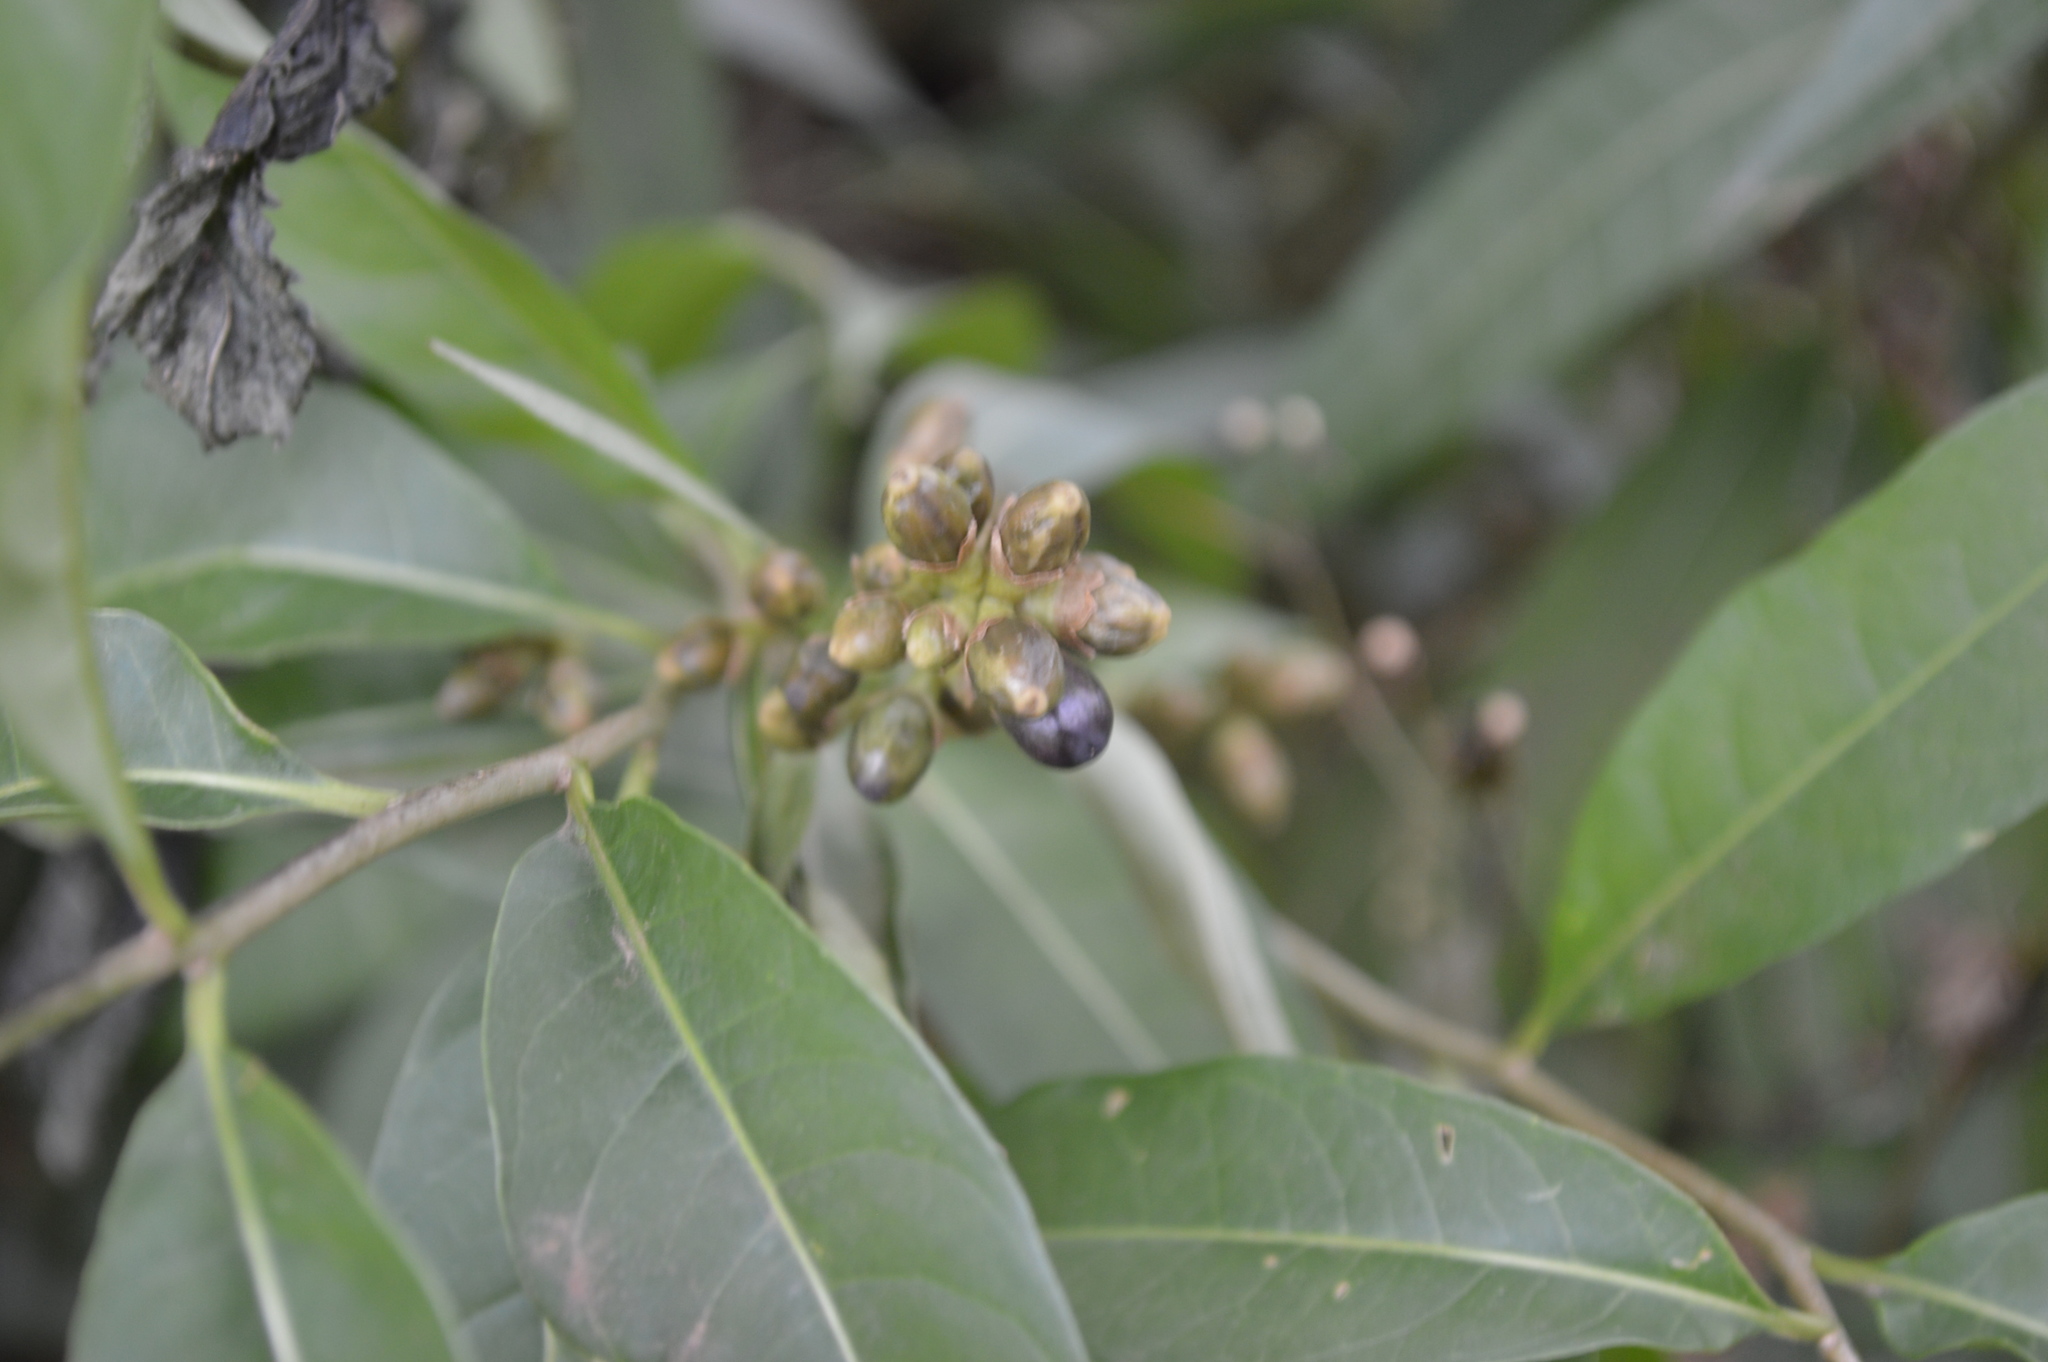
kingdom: Plantae
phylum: Tracheophyta
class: Magnoliopsida
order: Solanales
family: Solanaceae
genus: Cestrum
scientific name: Cestrum parqui
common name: Chilean cestrum
